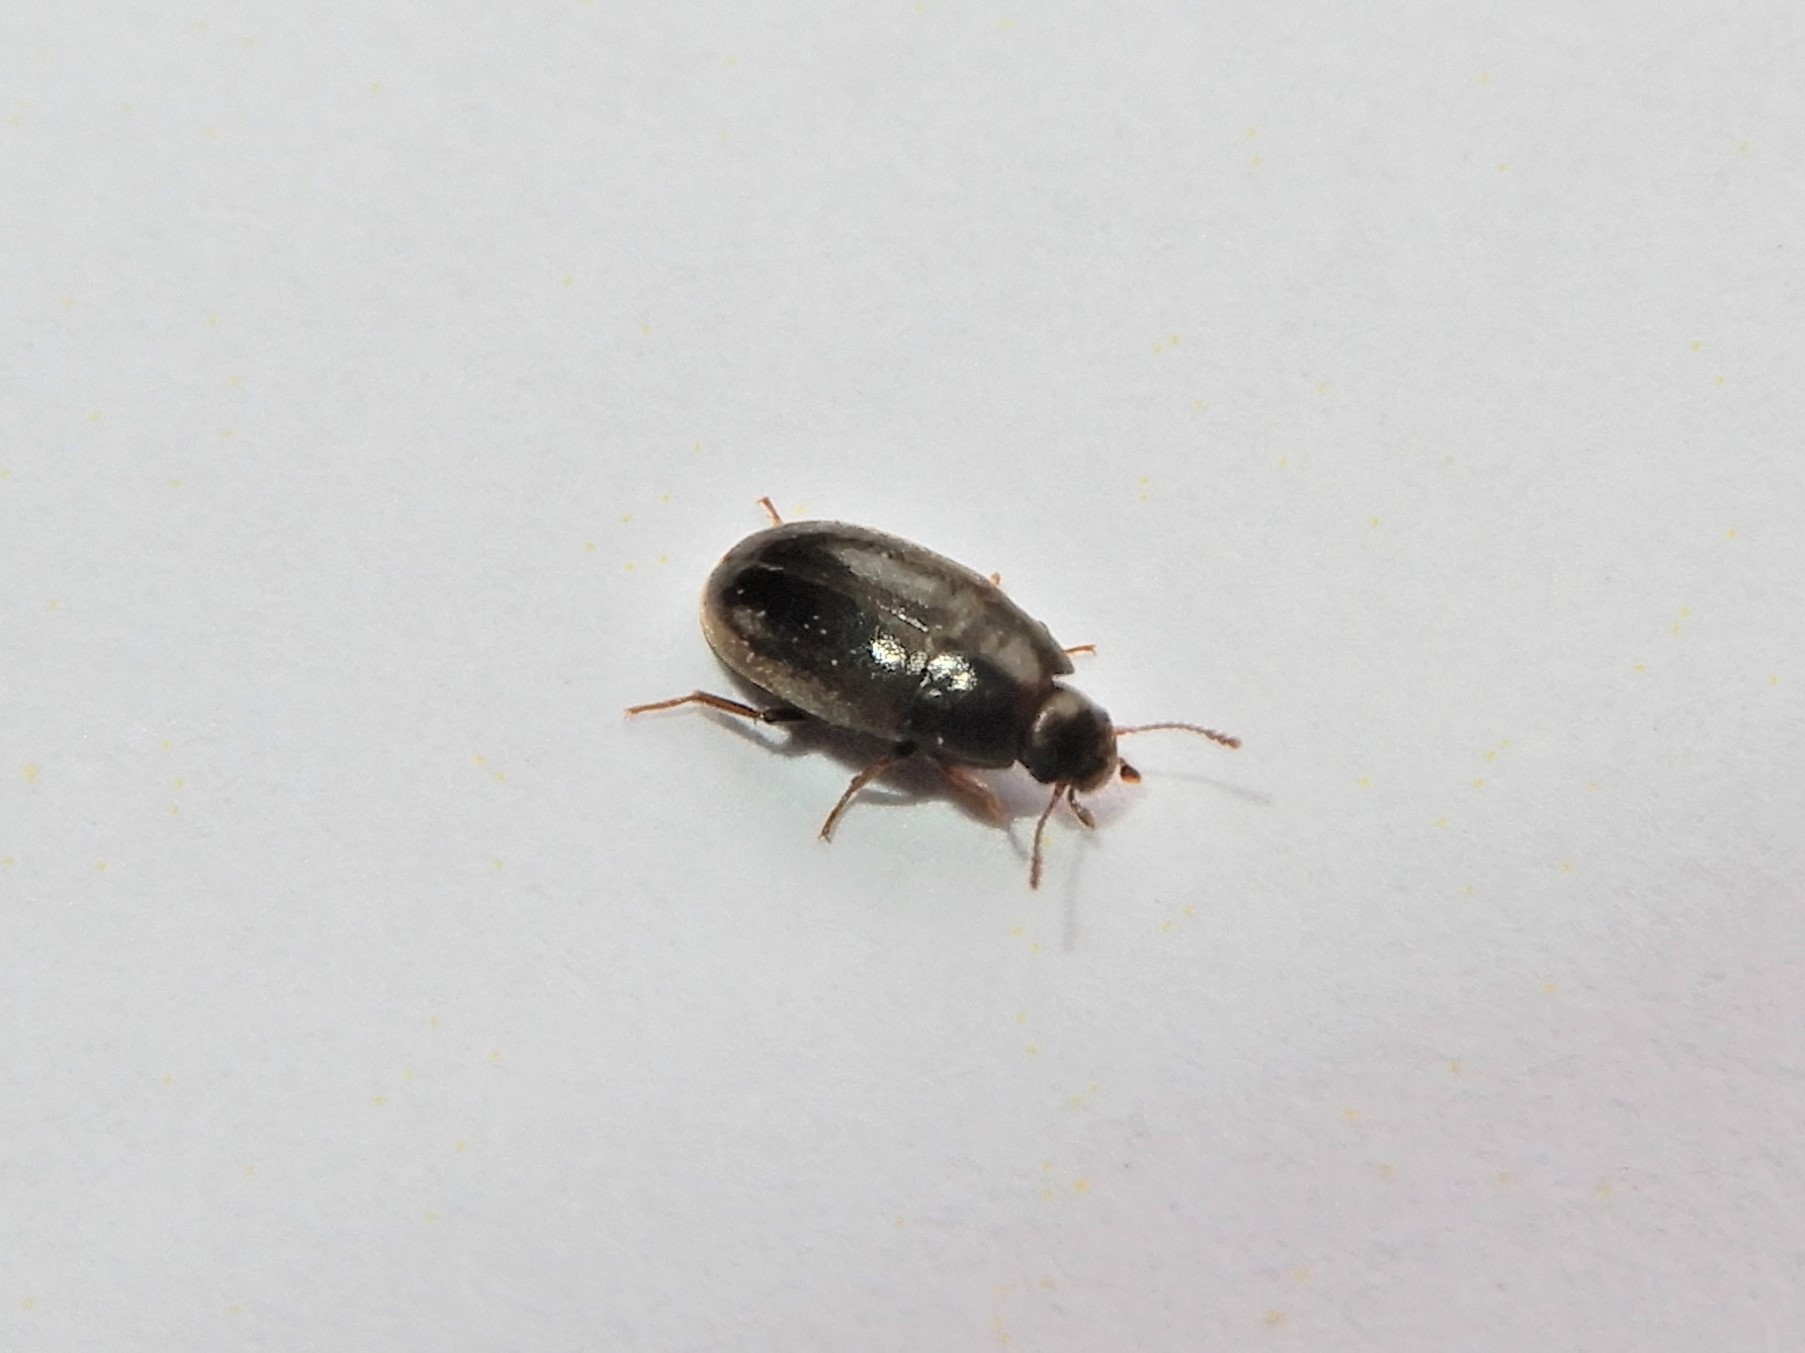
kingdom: Animalia
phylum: Arthropoda
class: Insecta
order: Coleoptera
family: Archeocrypticidae
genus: Enneboeus
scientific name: Enneboeus
